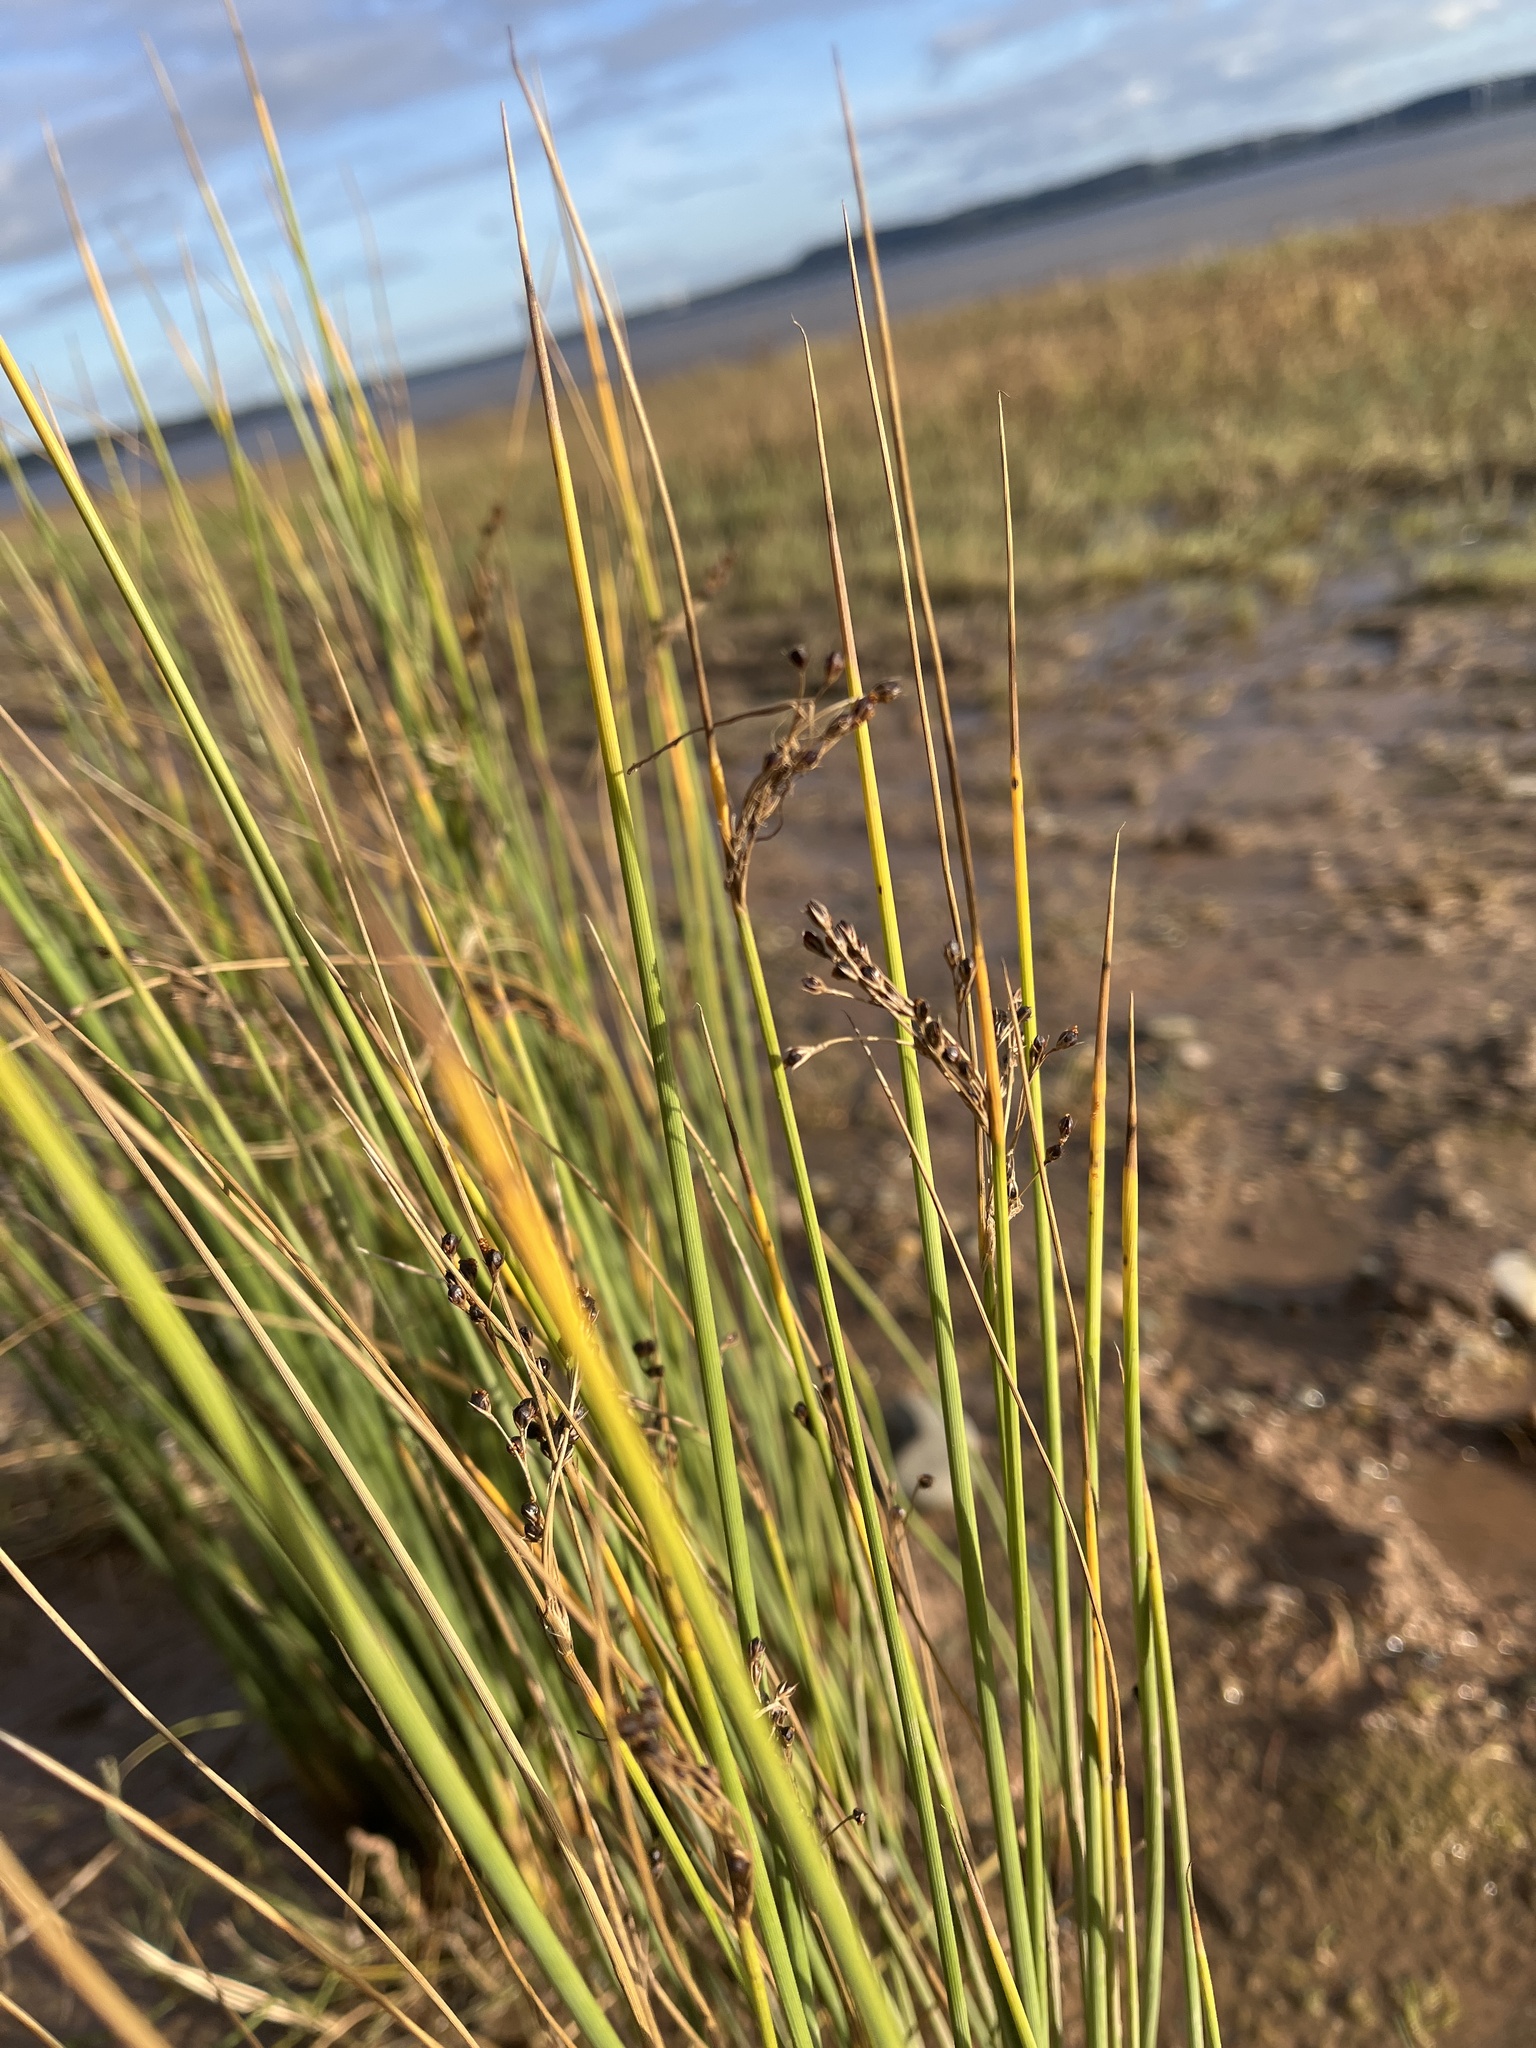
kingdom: Plantae
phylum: Tracheophyta
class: Liliopsida
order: Poales
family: Juncaceae
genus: Juncus
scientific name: Juncus inflexus
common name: Hard rush
